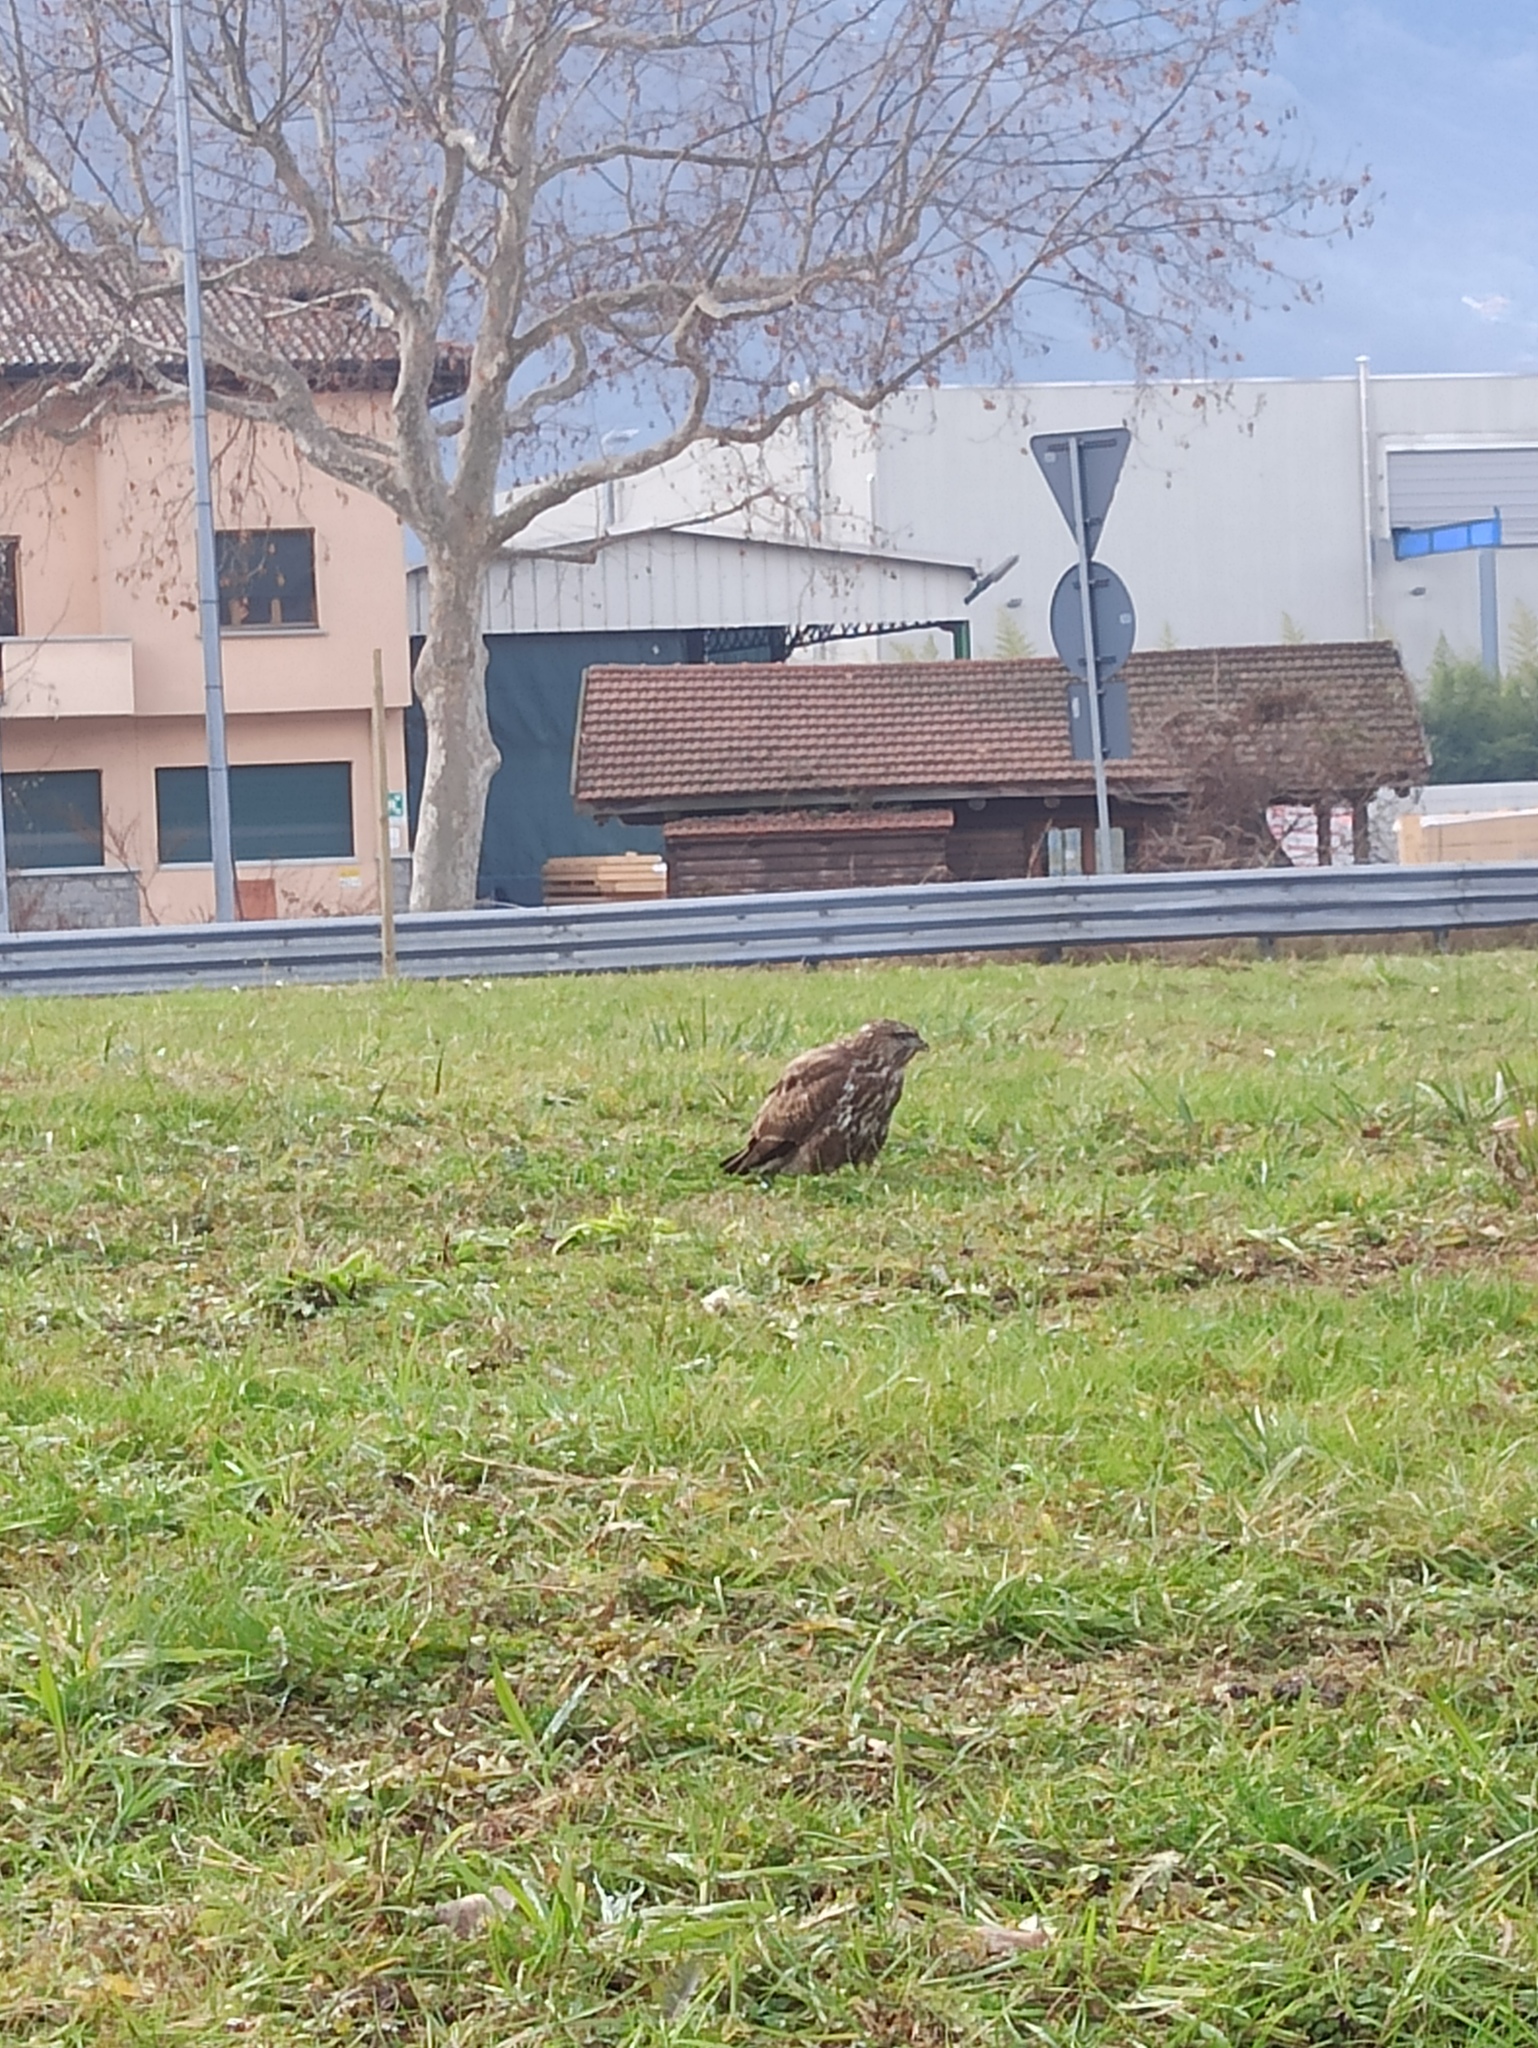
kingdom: Animalia
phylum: Chordata
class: Aves
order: Accipitriformes
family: Accipitridae
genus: Buteo
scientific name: Buteo buteo
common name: Common buzzard
